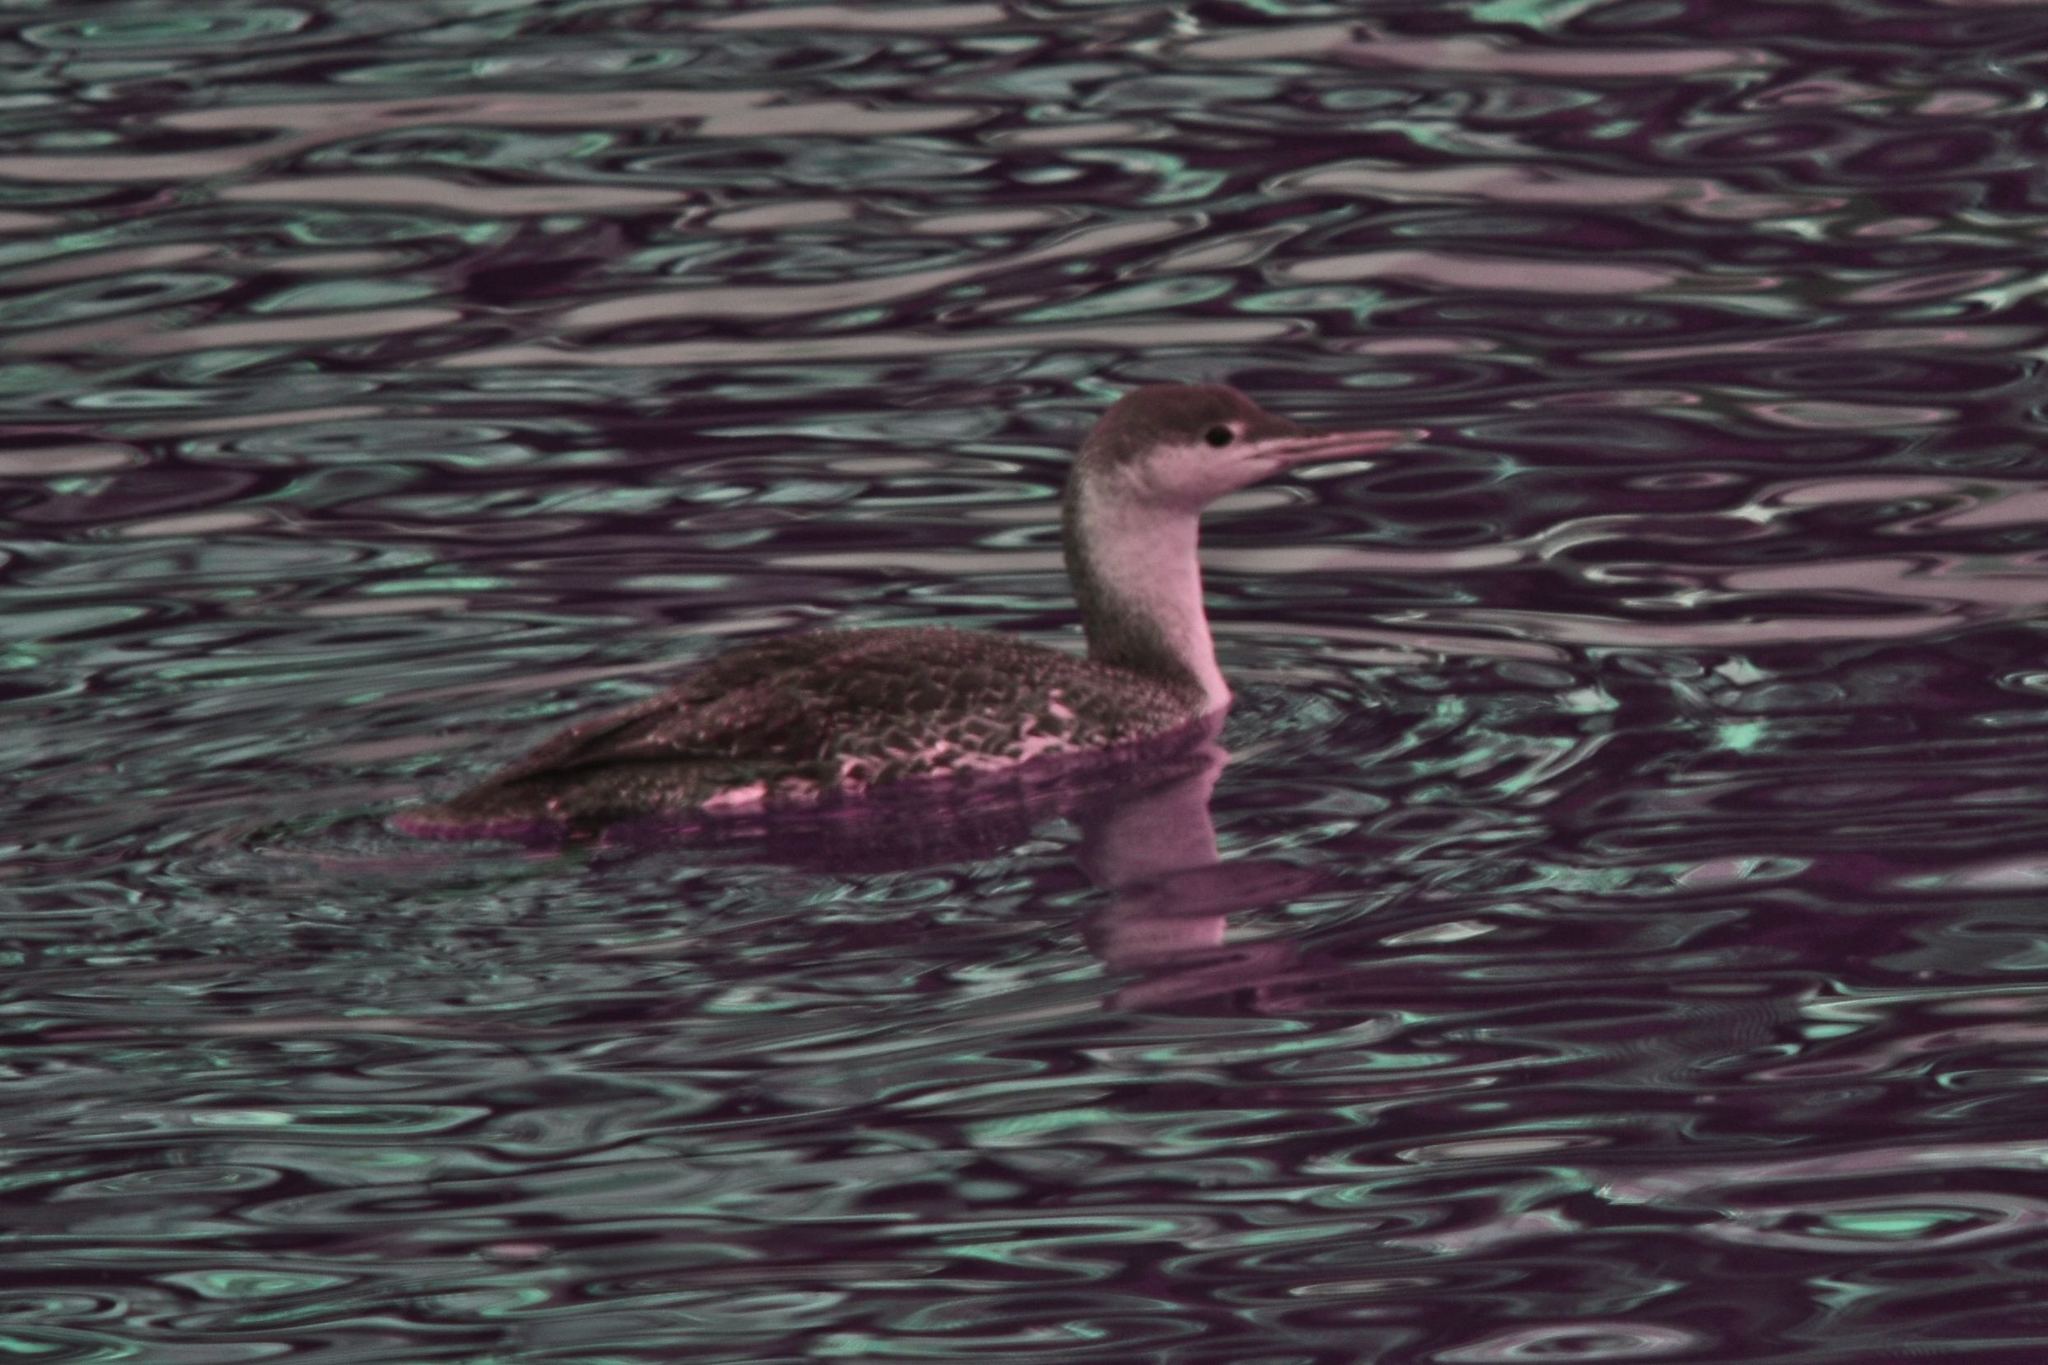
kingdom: Animalia
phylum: Chordata
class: Aves
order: Gaviiformes
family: Gaviidae
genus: Gavia
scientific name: Gavia stellata
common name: Red-throated loon
